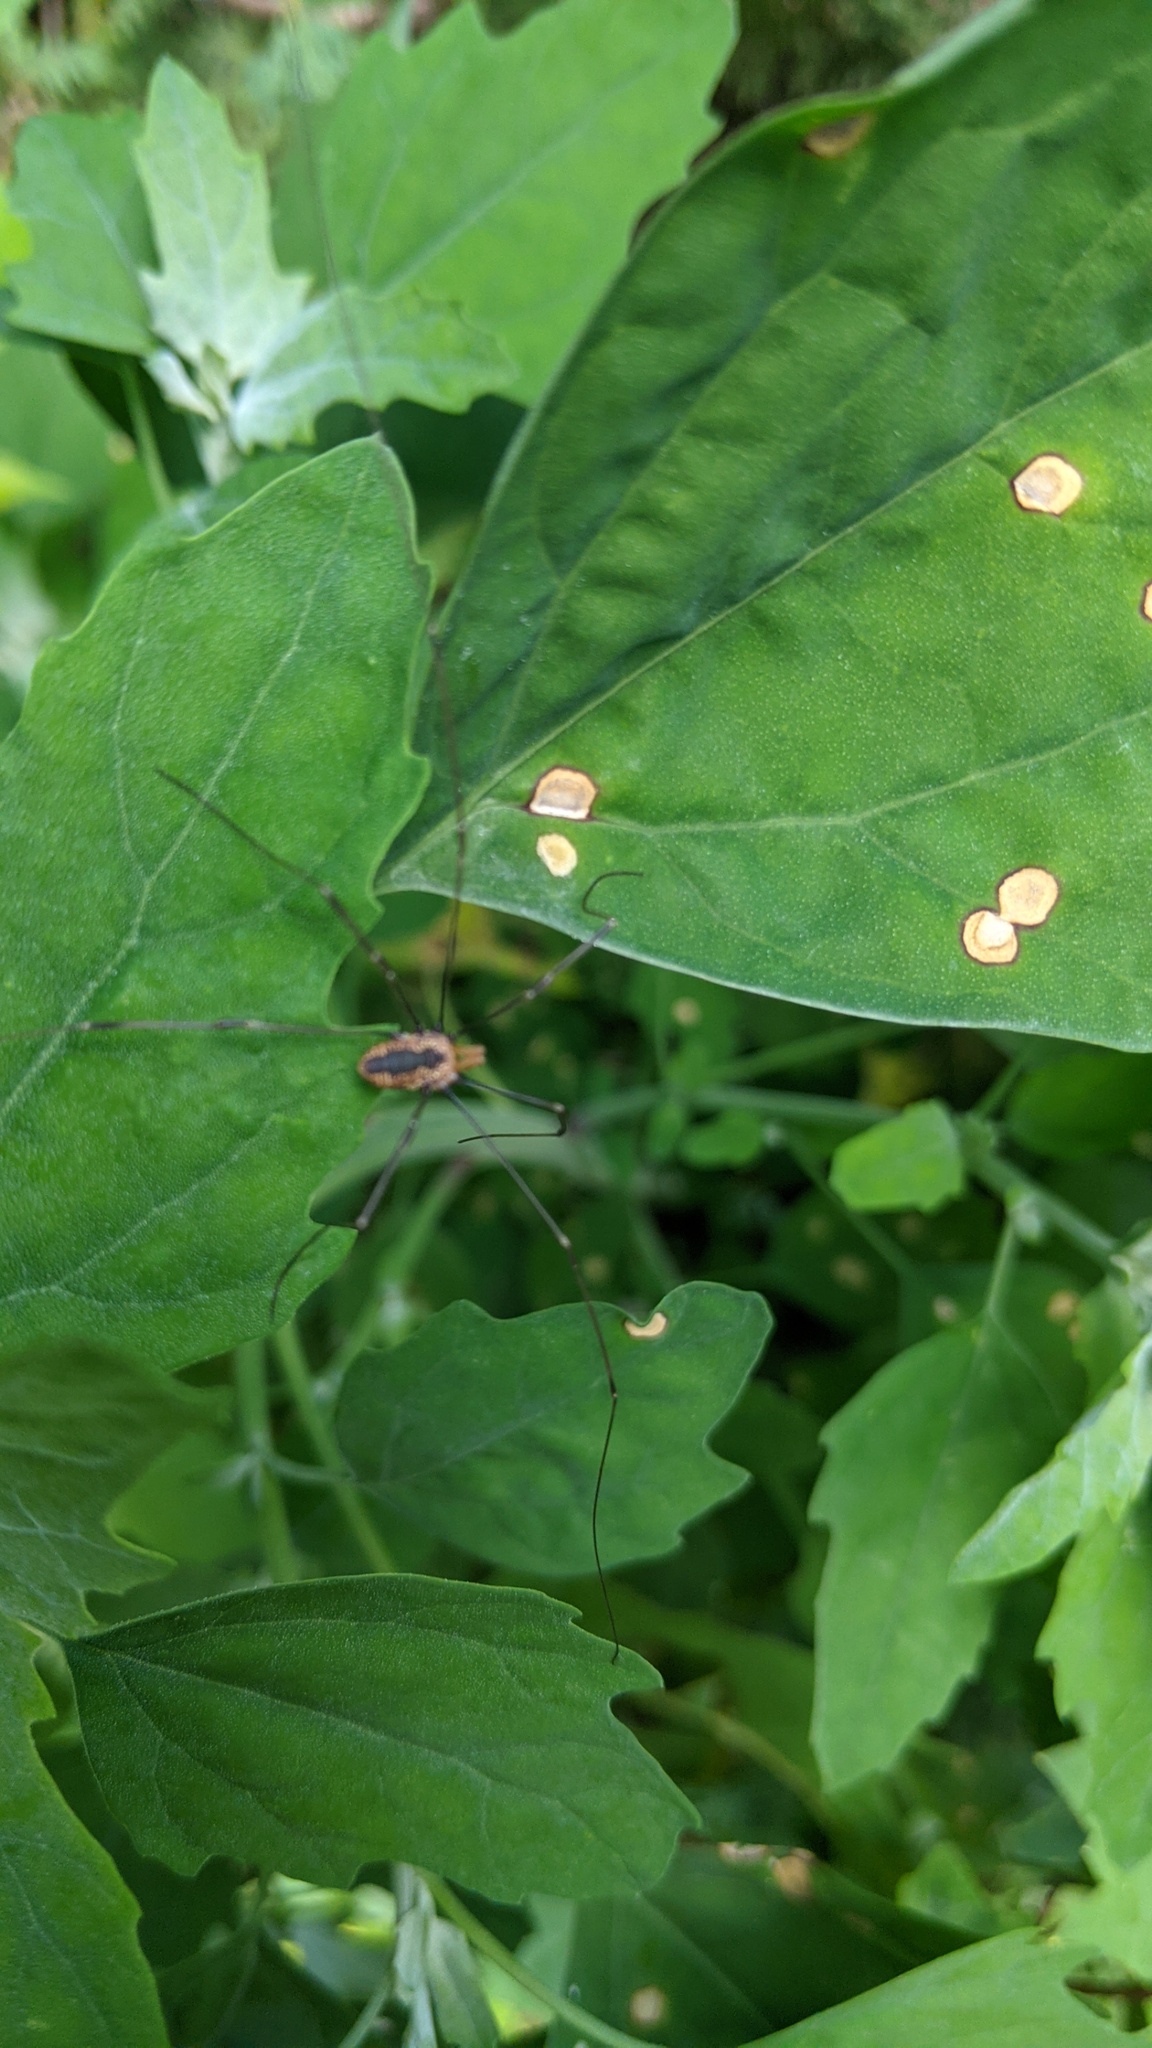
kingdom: Animalia
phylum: Arthropoda
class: Arachnida
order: Opiliones
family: Sclerosomatidae
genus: Leiobunum
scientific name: Leiobunum vittatum
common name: Eastern harvestman
